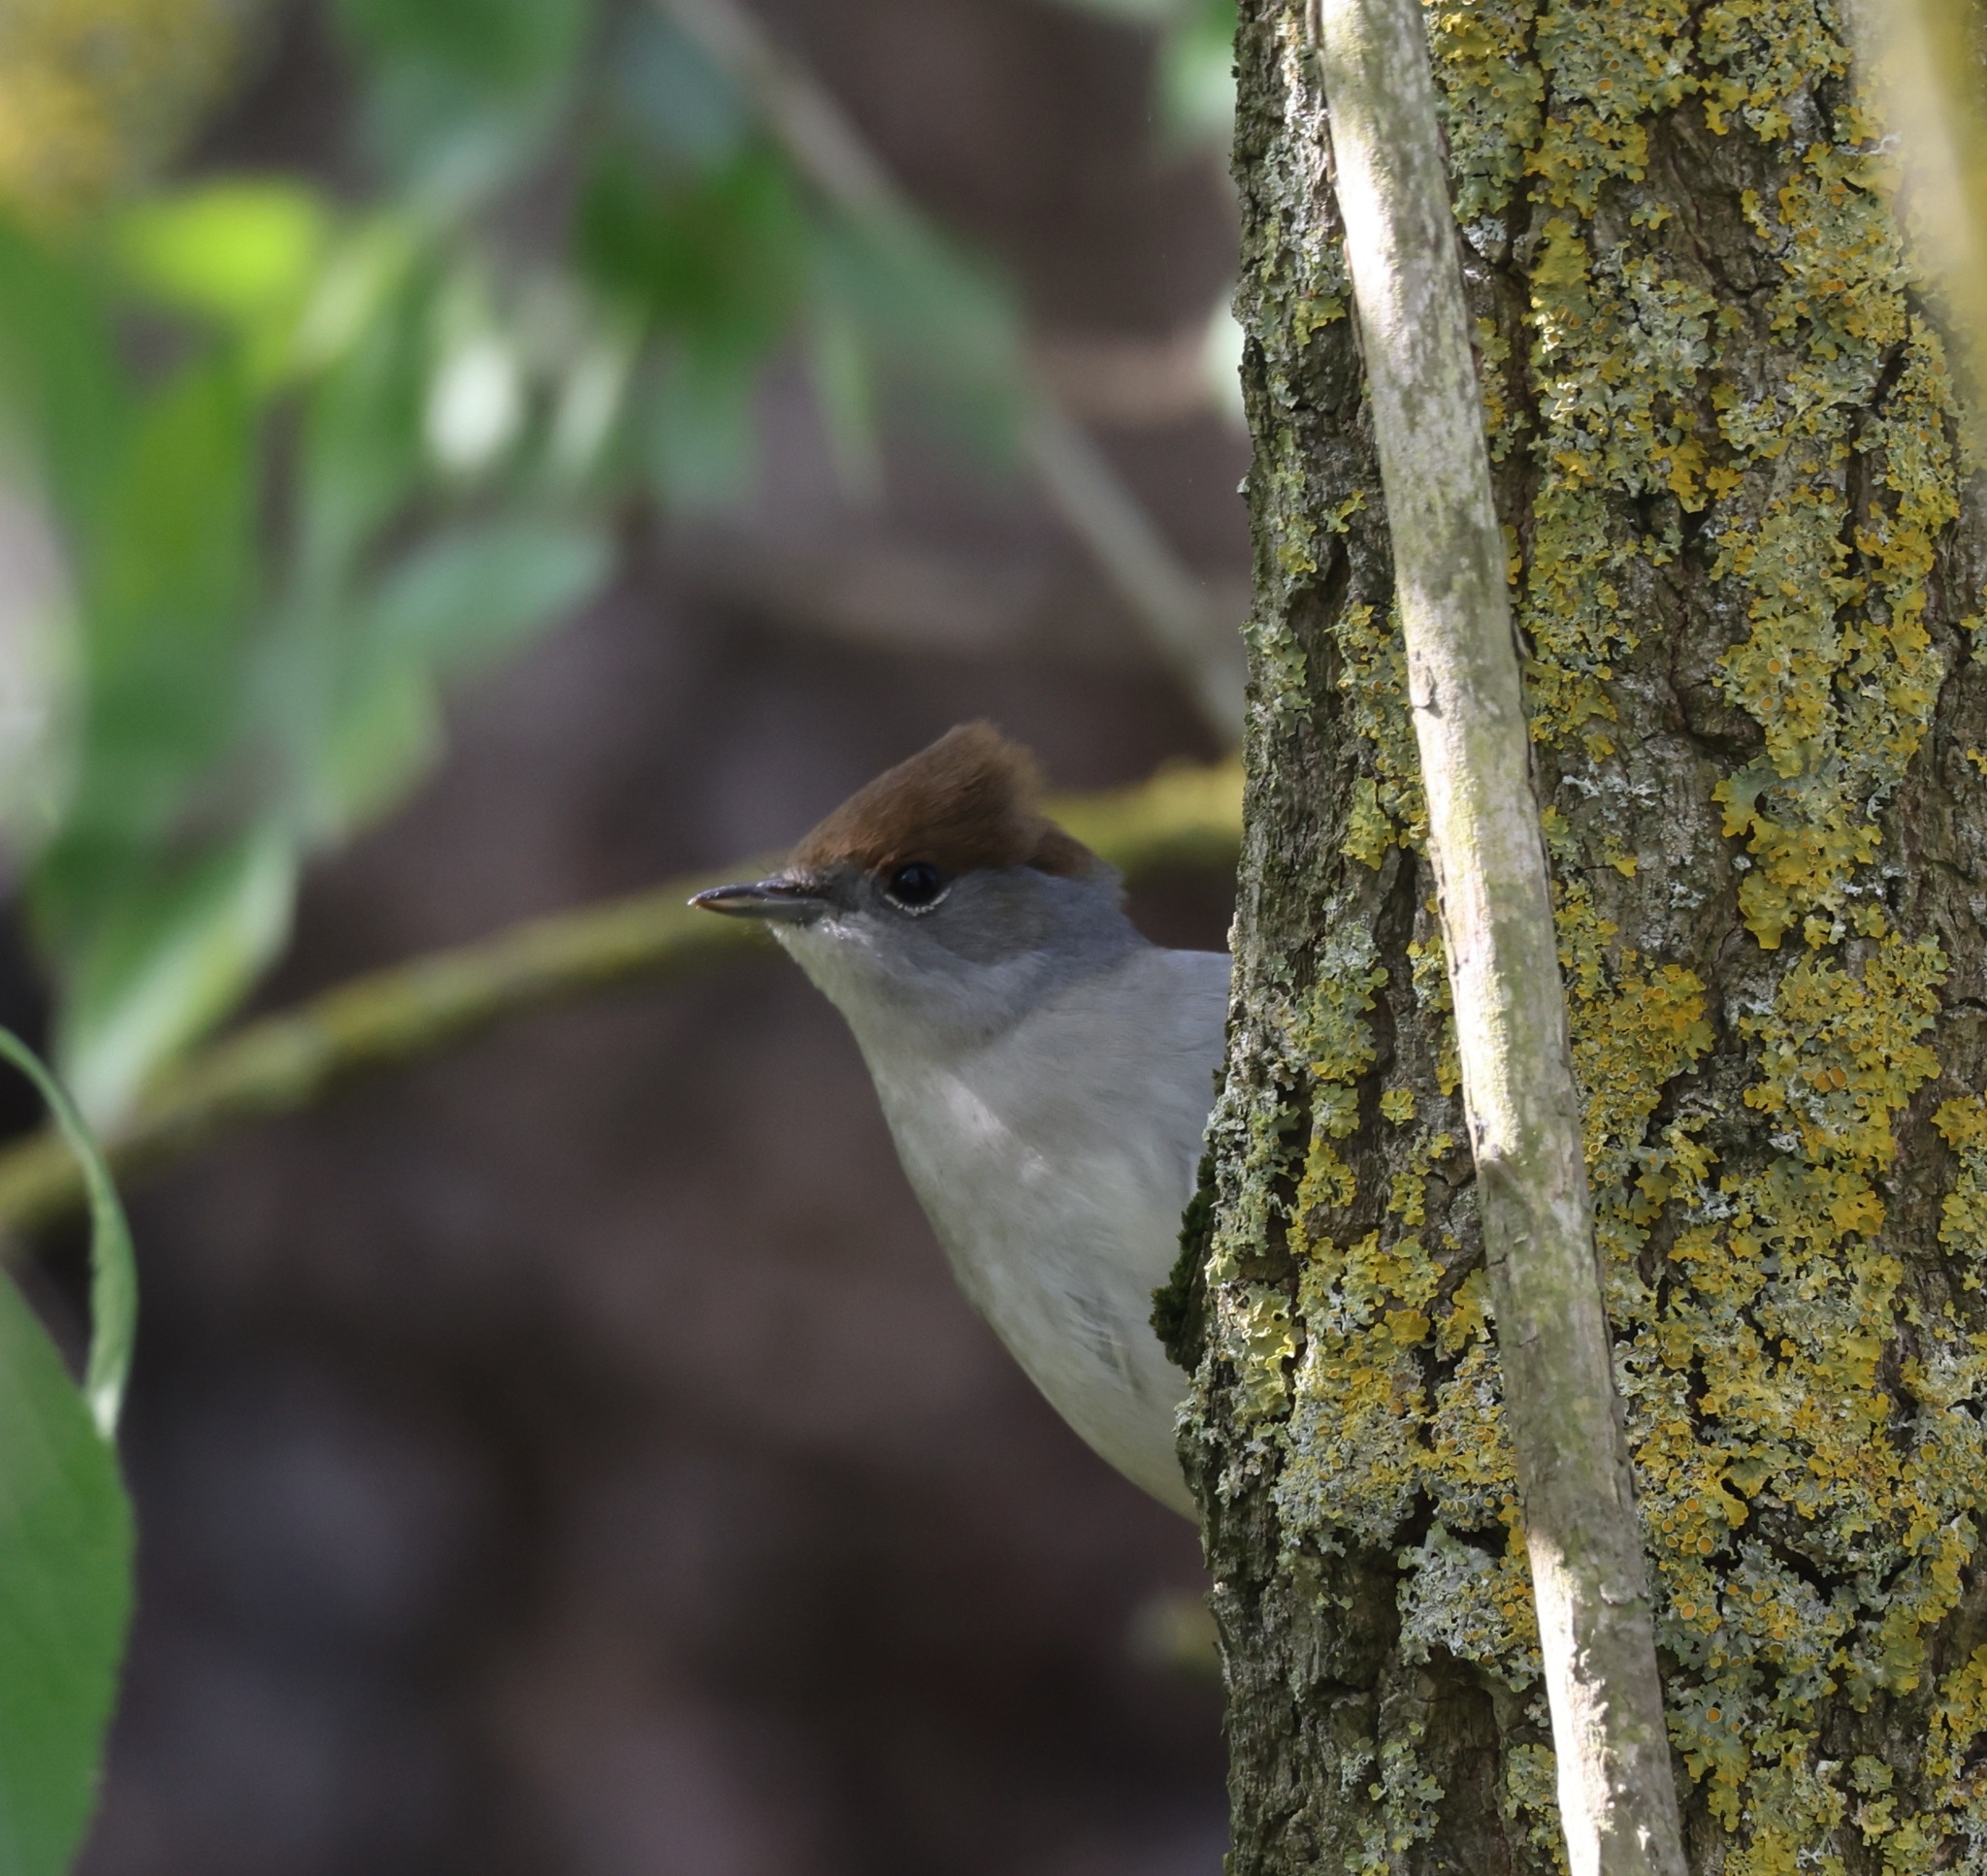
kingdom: Animalia
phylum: Chordata
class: Aves
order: Passeriformes
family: Sylviidae
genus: Sylvia
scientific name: Sylvia atricapilla
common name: Eurasian blackcap
